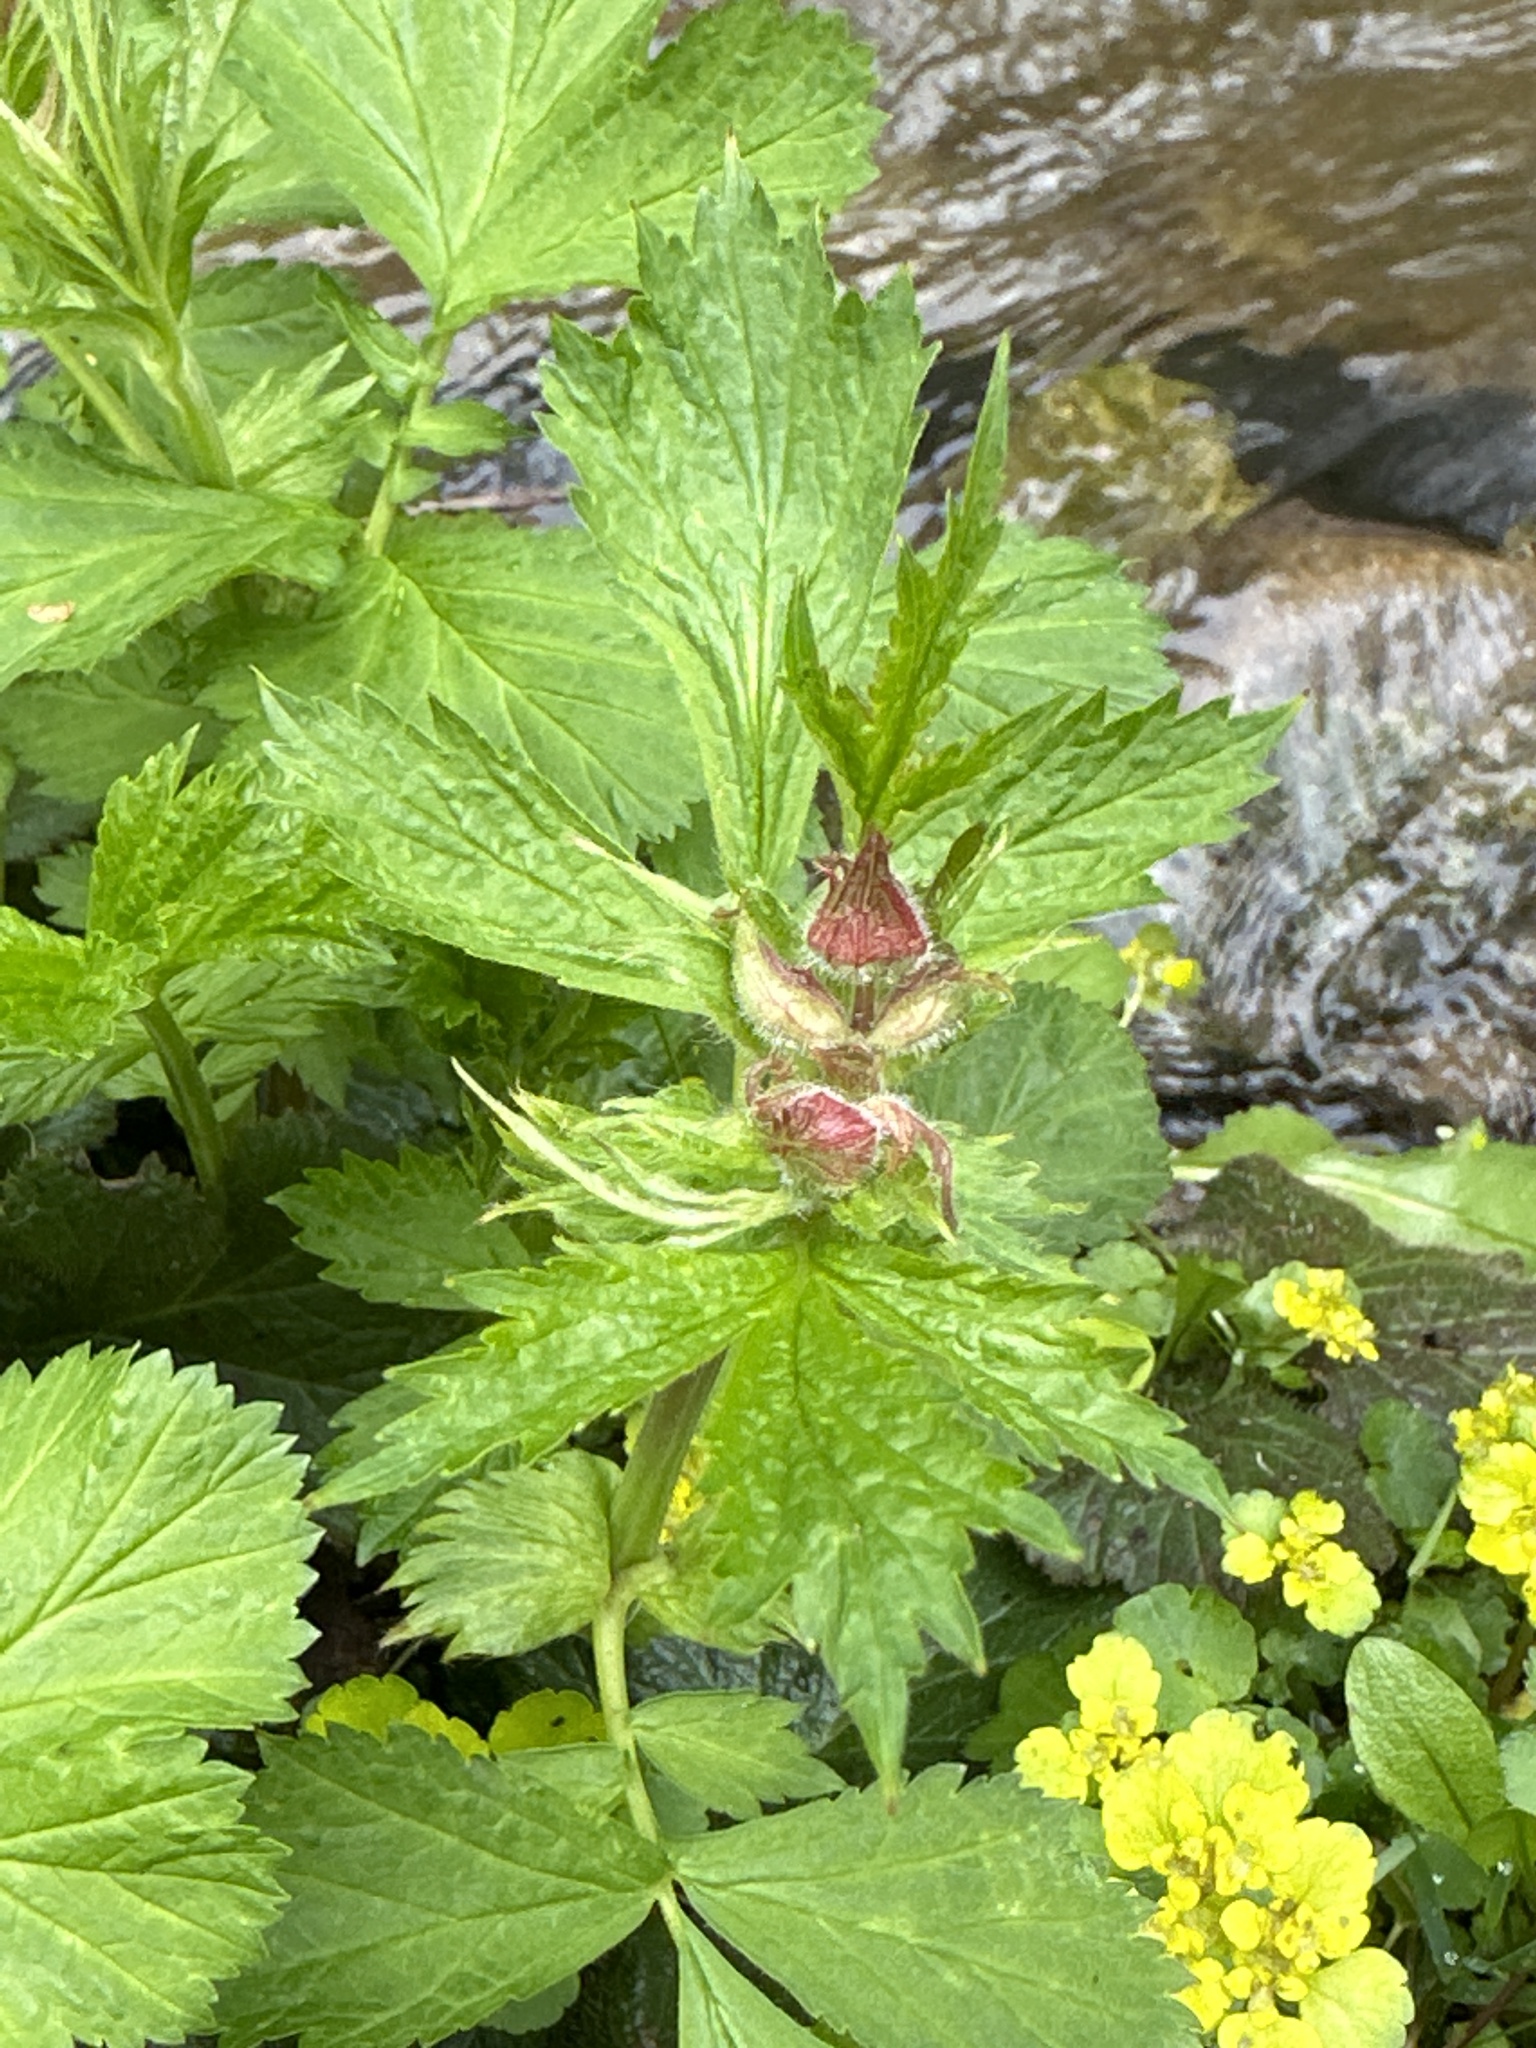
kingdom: Plantae
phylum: Tracheophyta
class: Magnoliopsida
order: Rosales
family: Rosaceae
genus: Geum
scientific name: Geum rivale
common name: Water avens
